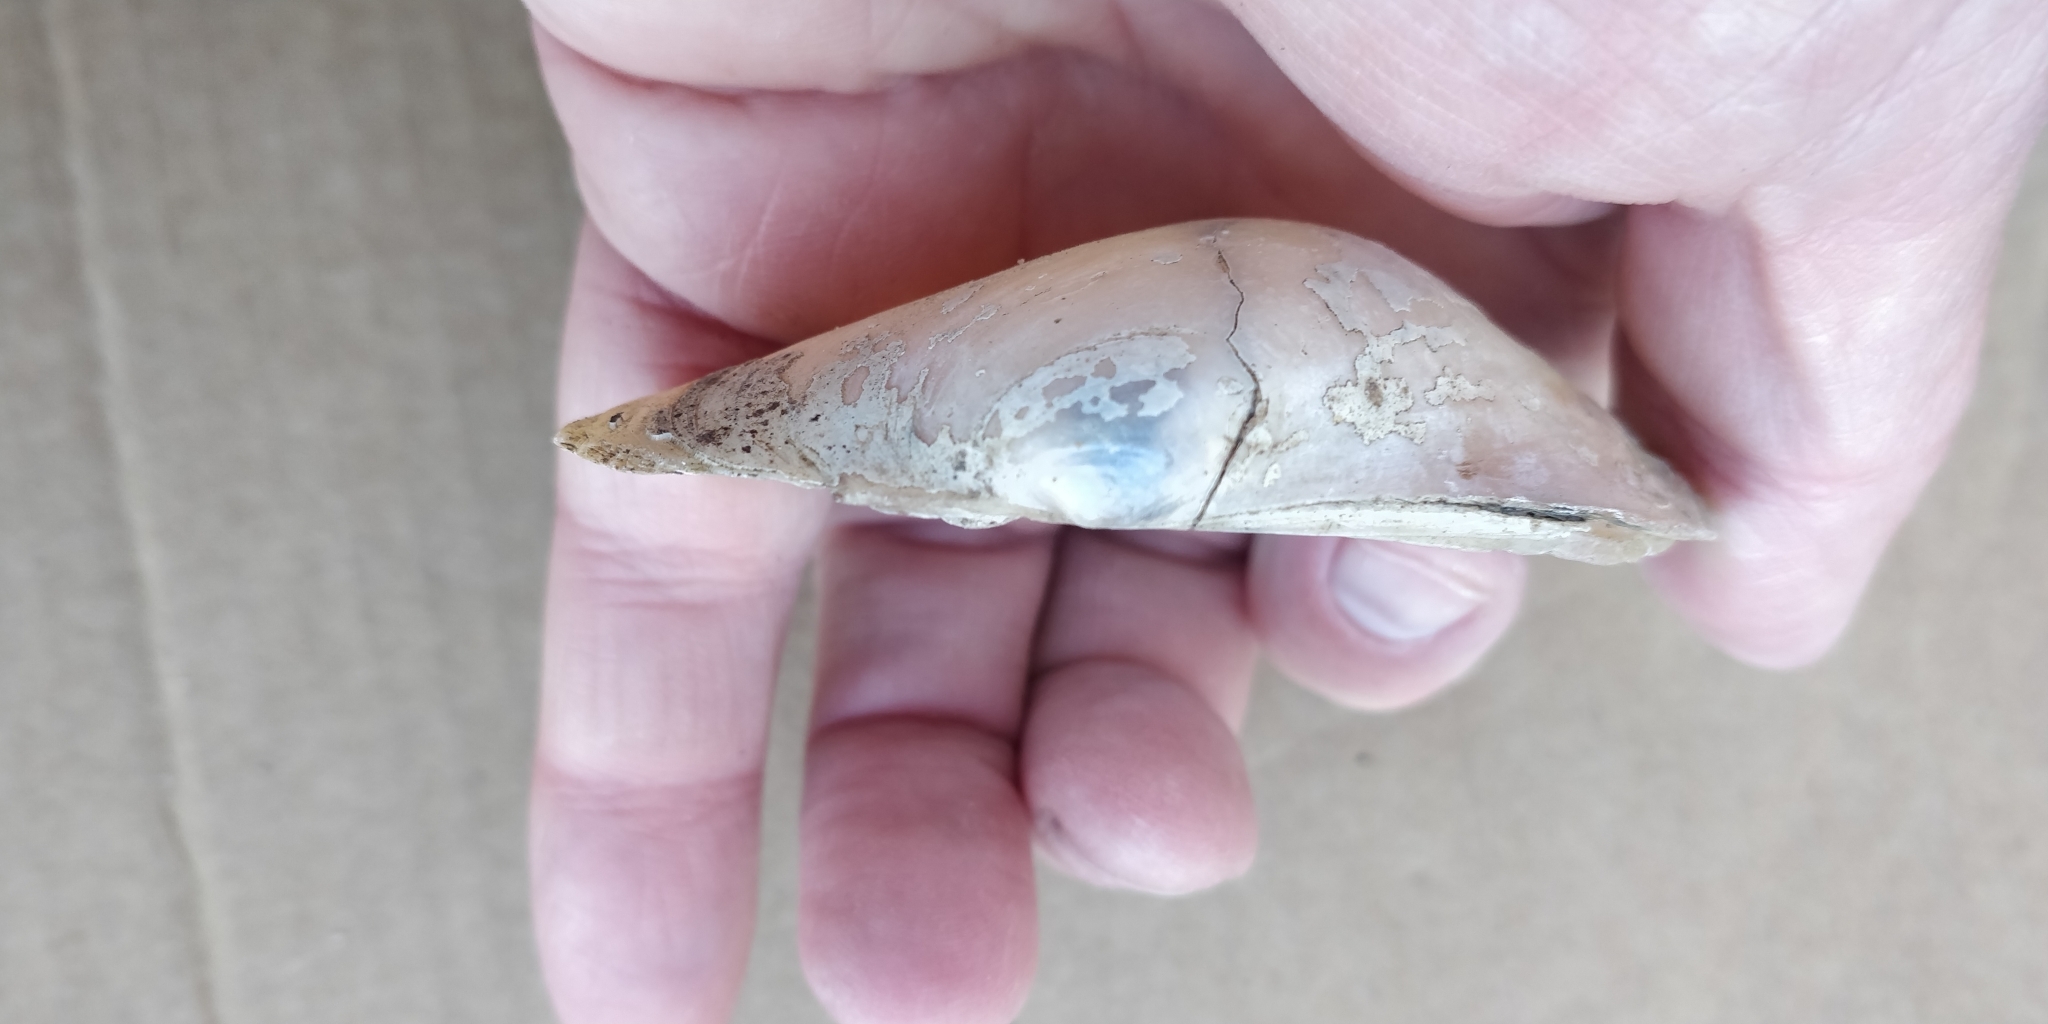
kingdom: Animalia
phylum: Mollusca
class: Bivalvia
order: Unionida
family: Unionidae
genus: Lampsilis
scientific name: Lampsilis cardium
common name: Plain pocketbook
